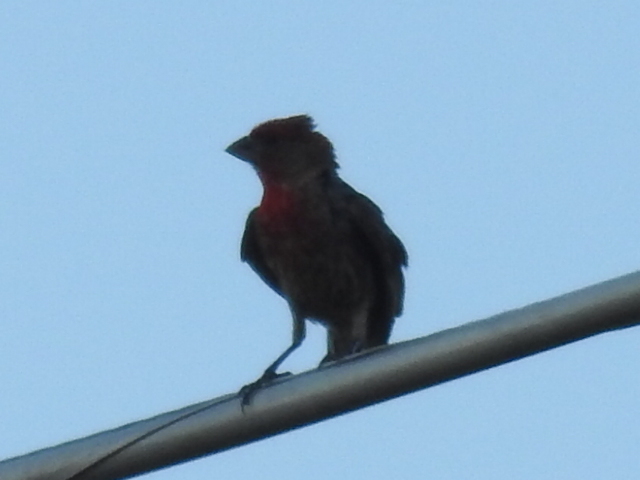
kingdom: Animalia
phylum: Chordata
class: Aves
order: Passeriformes
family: Fringillidae
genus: Haemorhous
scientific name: Haemorhous mexicanus
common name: House finch
